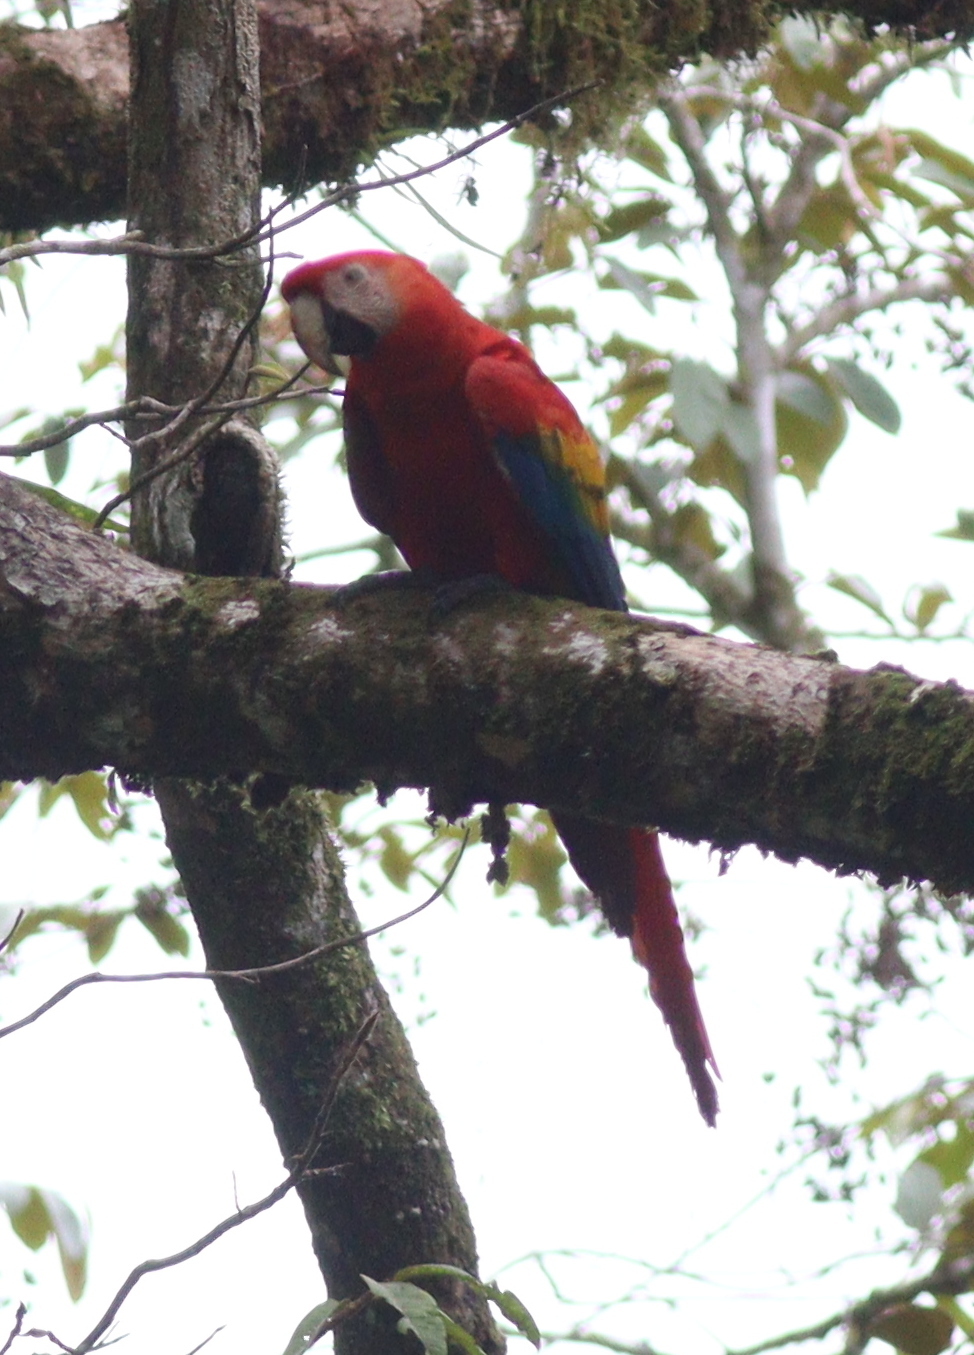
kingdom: Animalia
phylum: Chordata
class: Aves
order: Psittaciformes
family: Psittacidae
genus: Ara
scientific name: Ara macao
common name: Scarlet macaw
